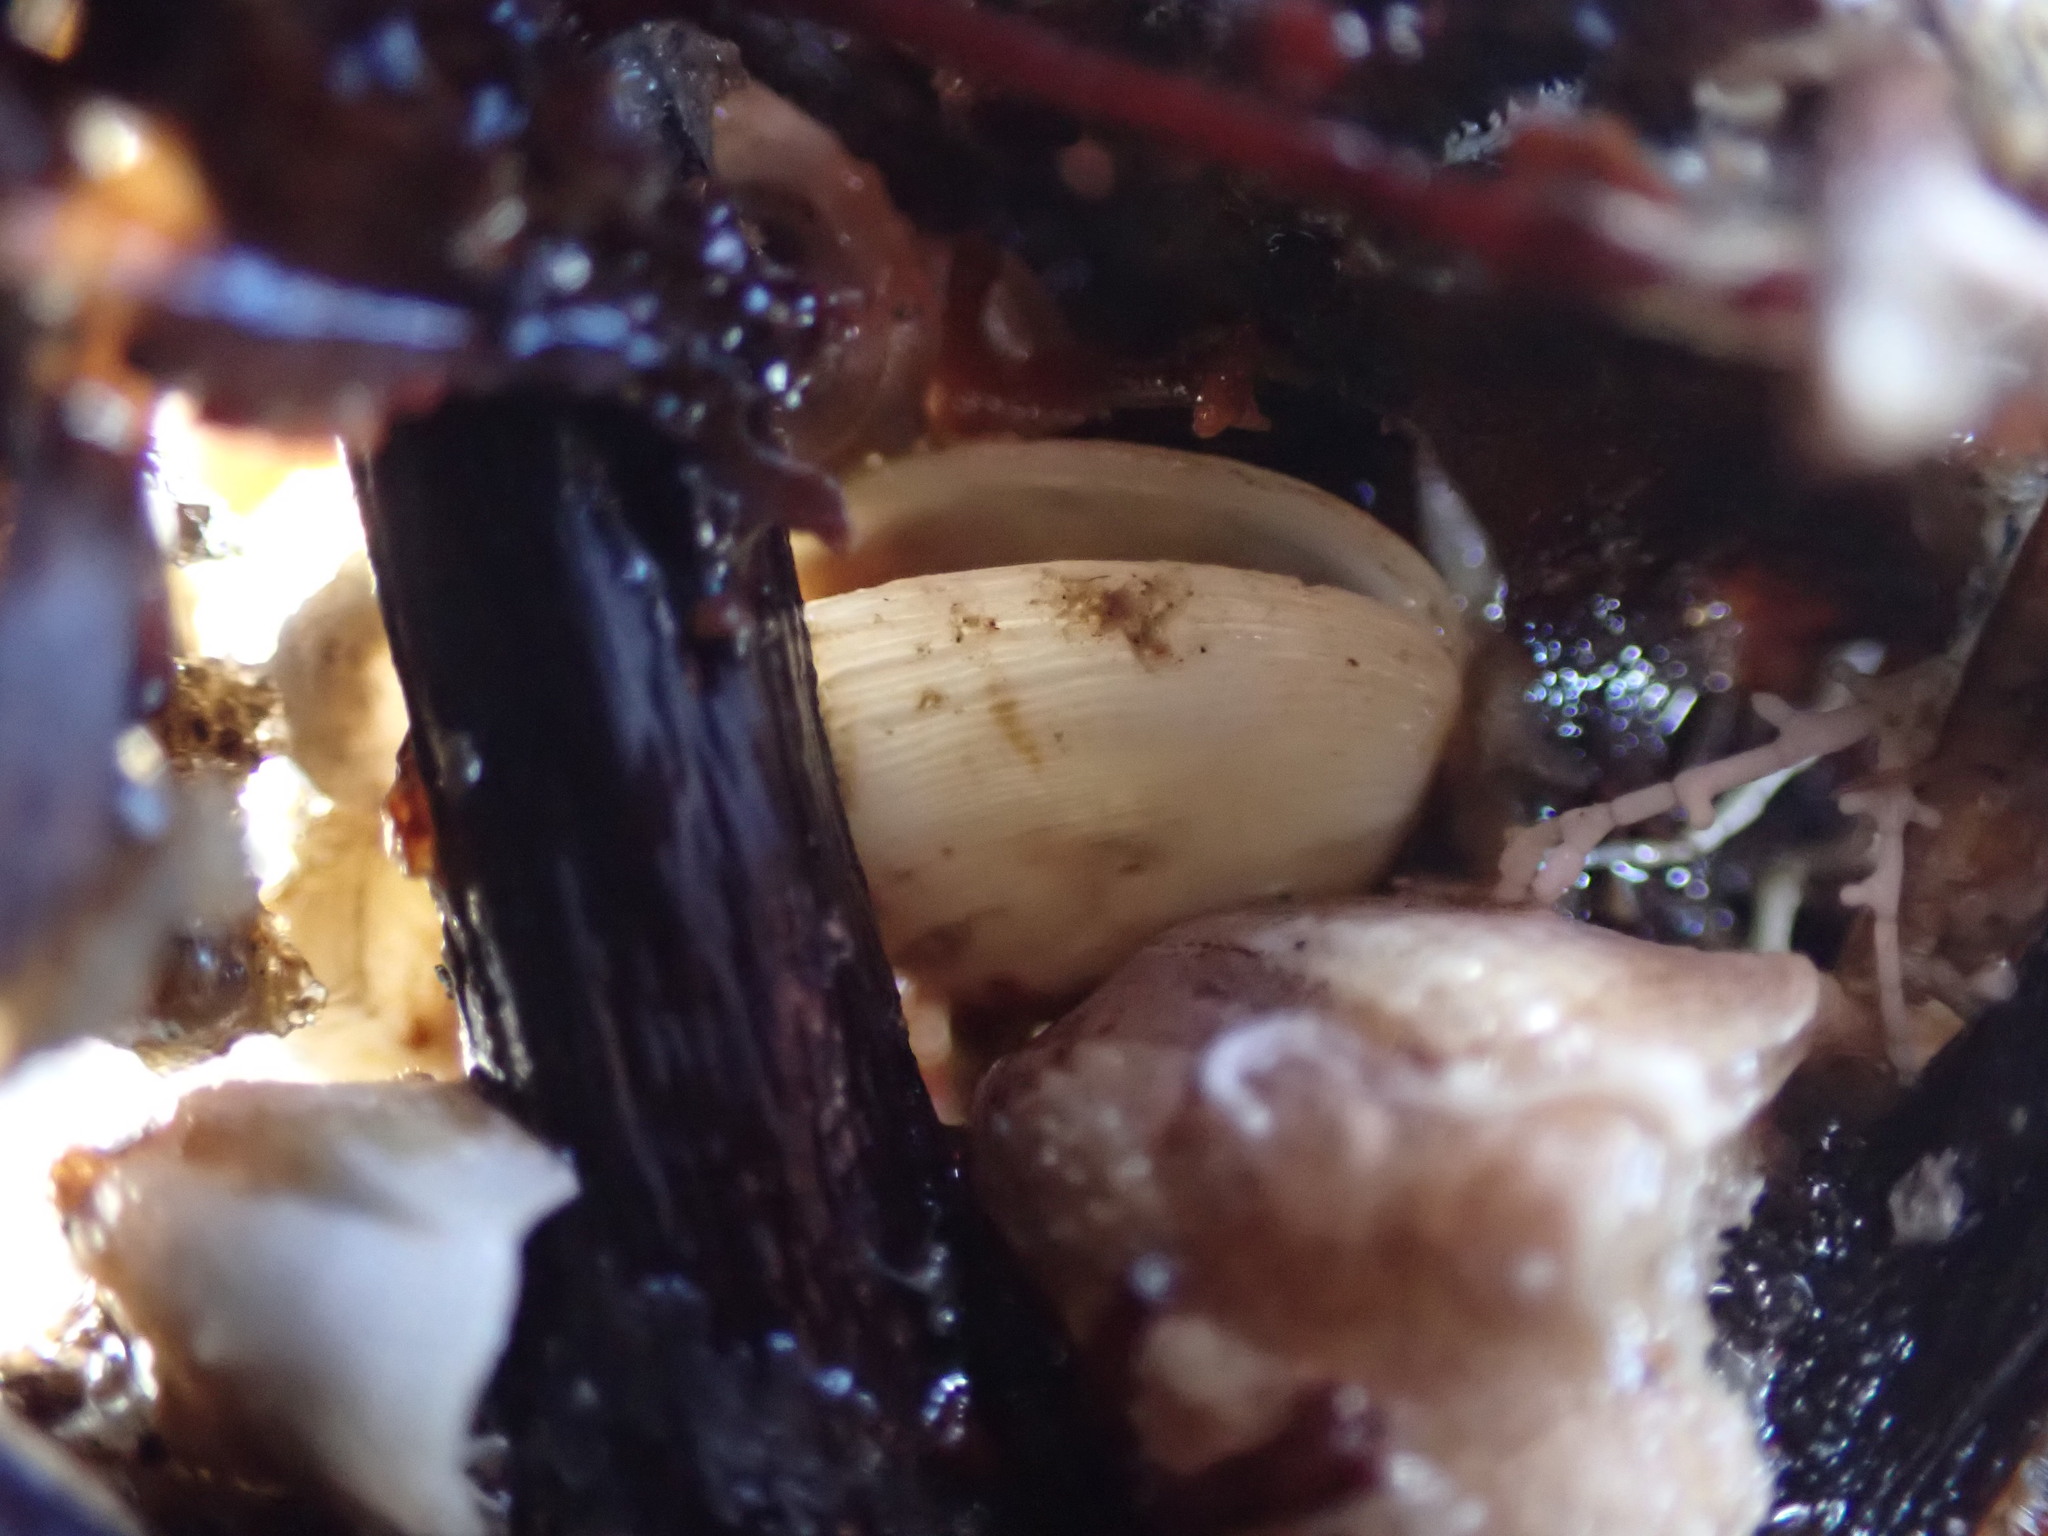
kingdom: Animalia
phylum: Mollusca
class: Bivalvia
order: Venerida
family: Veneridae
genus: Irus
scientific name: Irus reflexus
